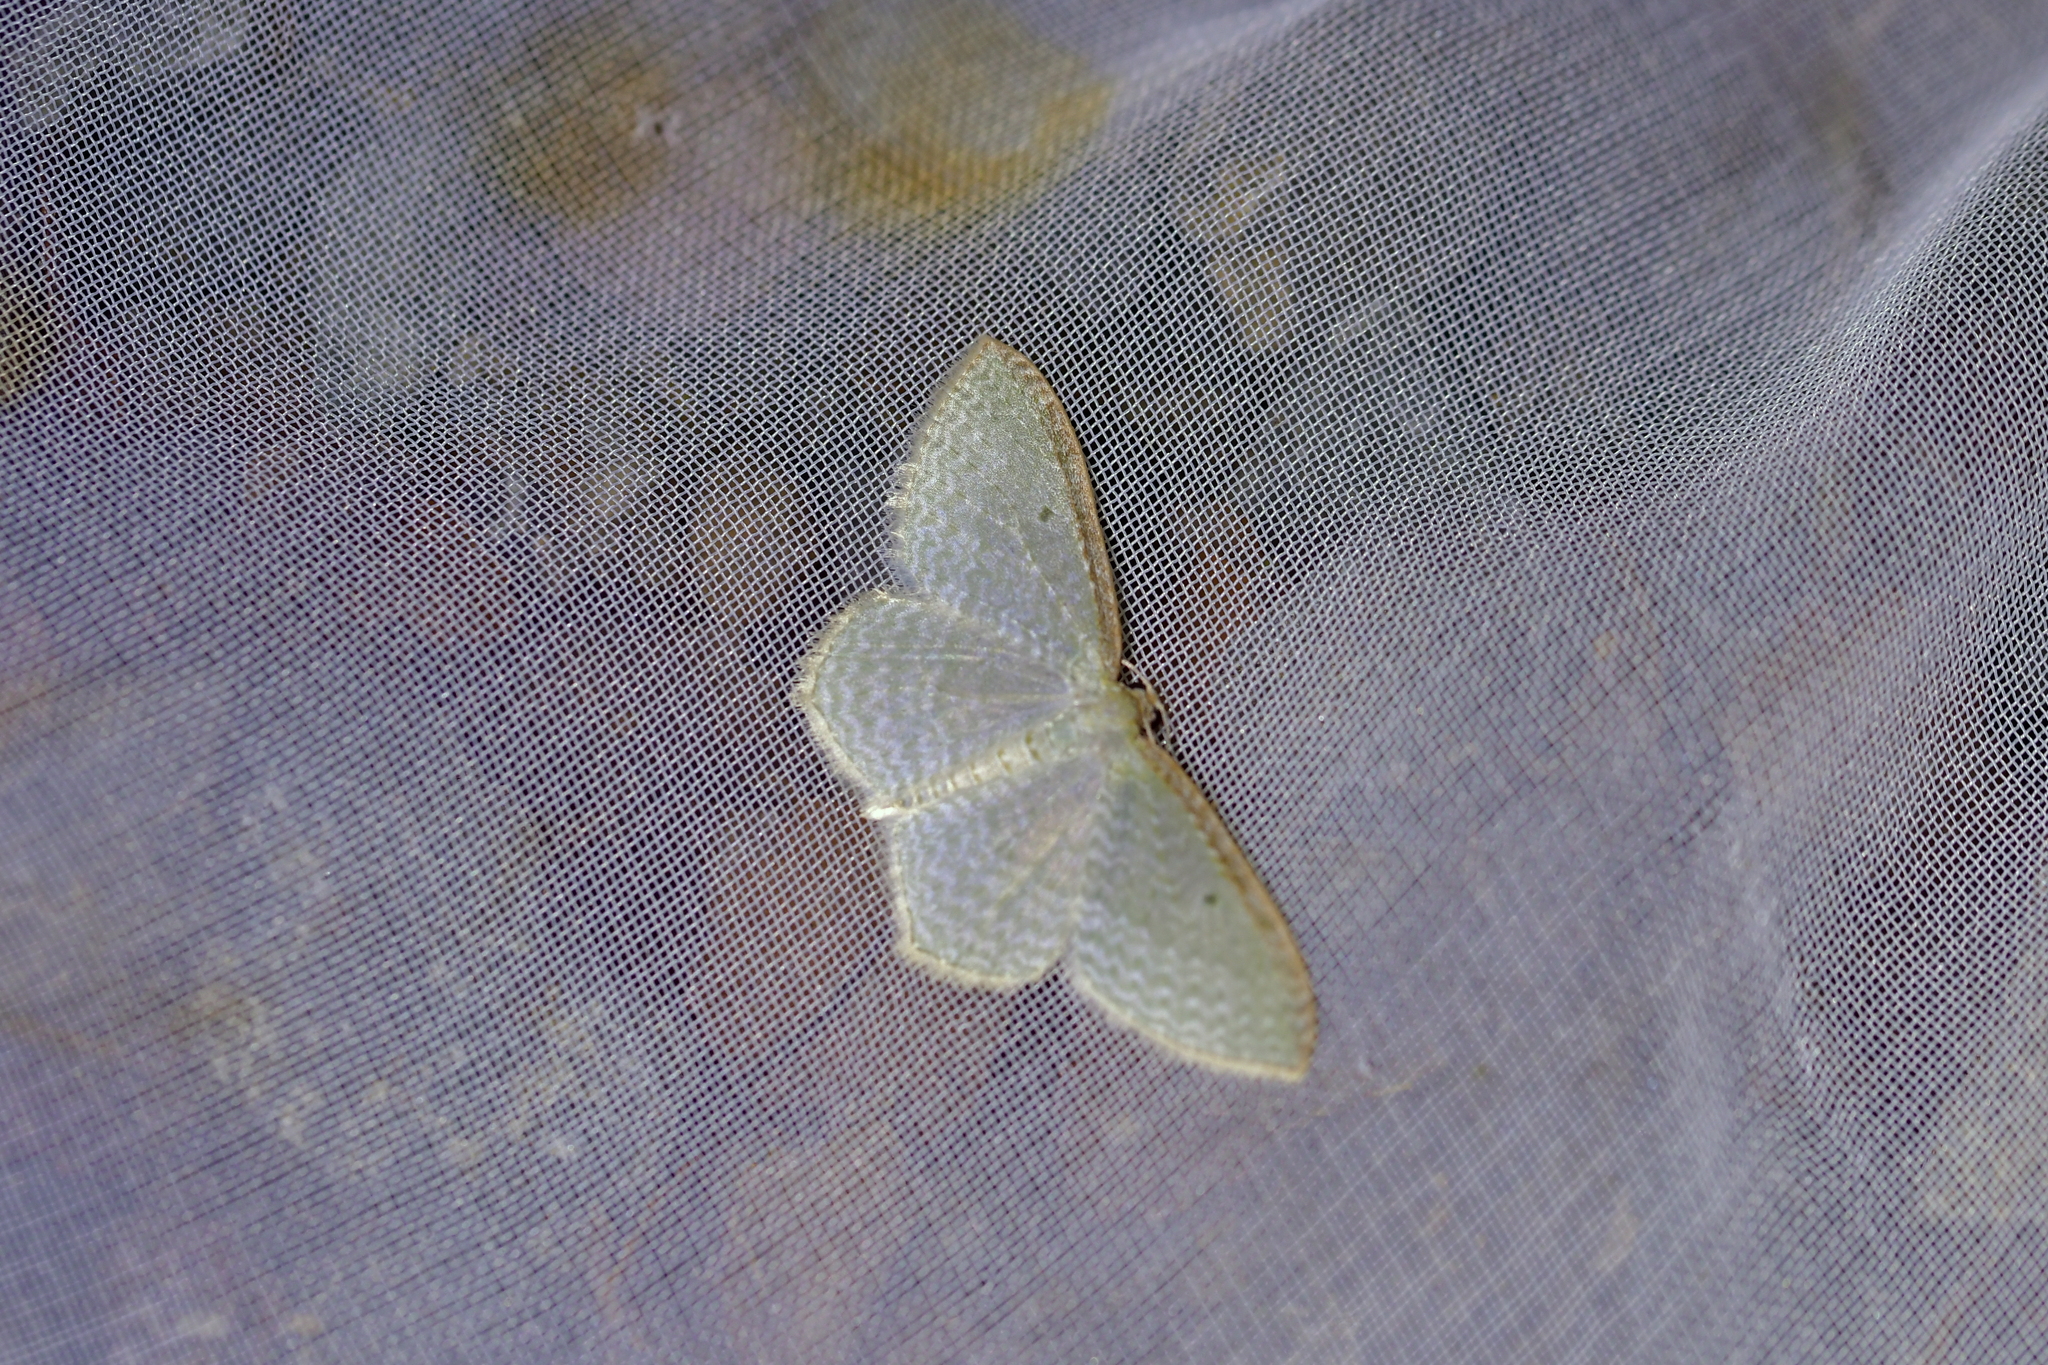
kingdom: Animalia
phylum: Arthropoda
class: Insecta
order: Lepidoptera
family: Geometridae
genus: Poecilasthena
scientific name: Poecilasthena pulchraria
